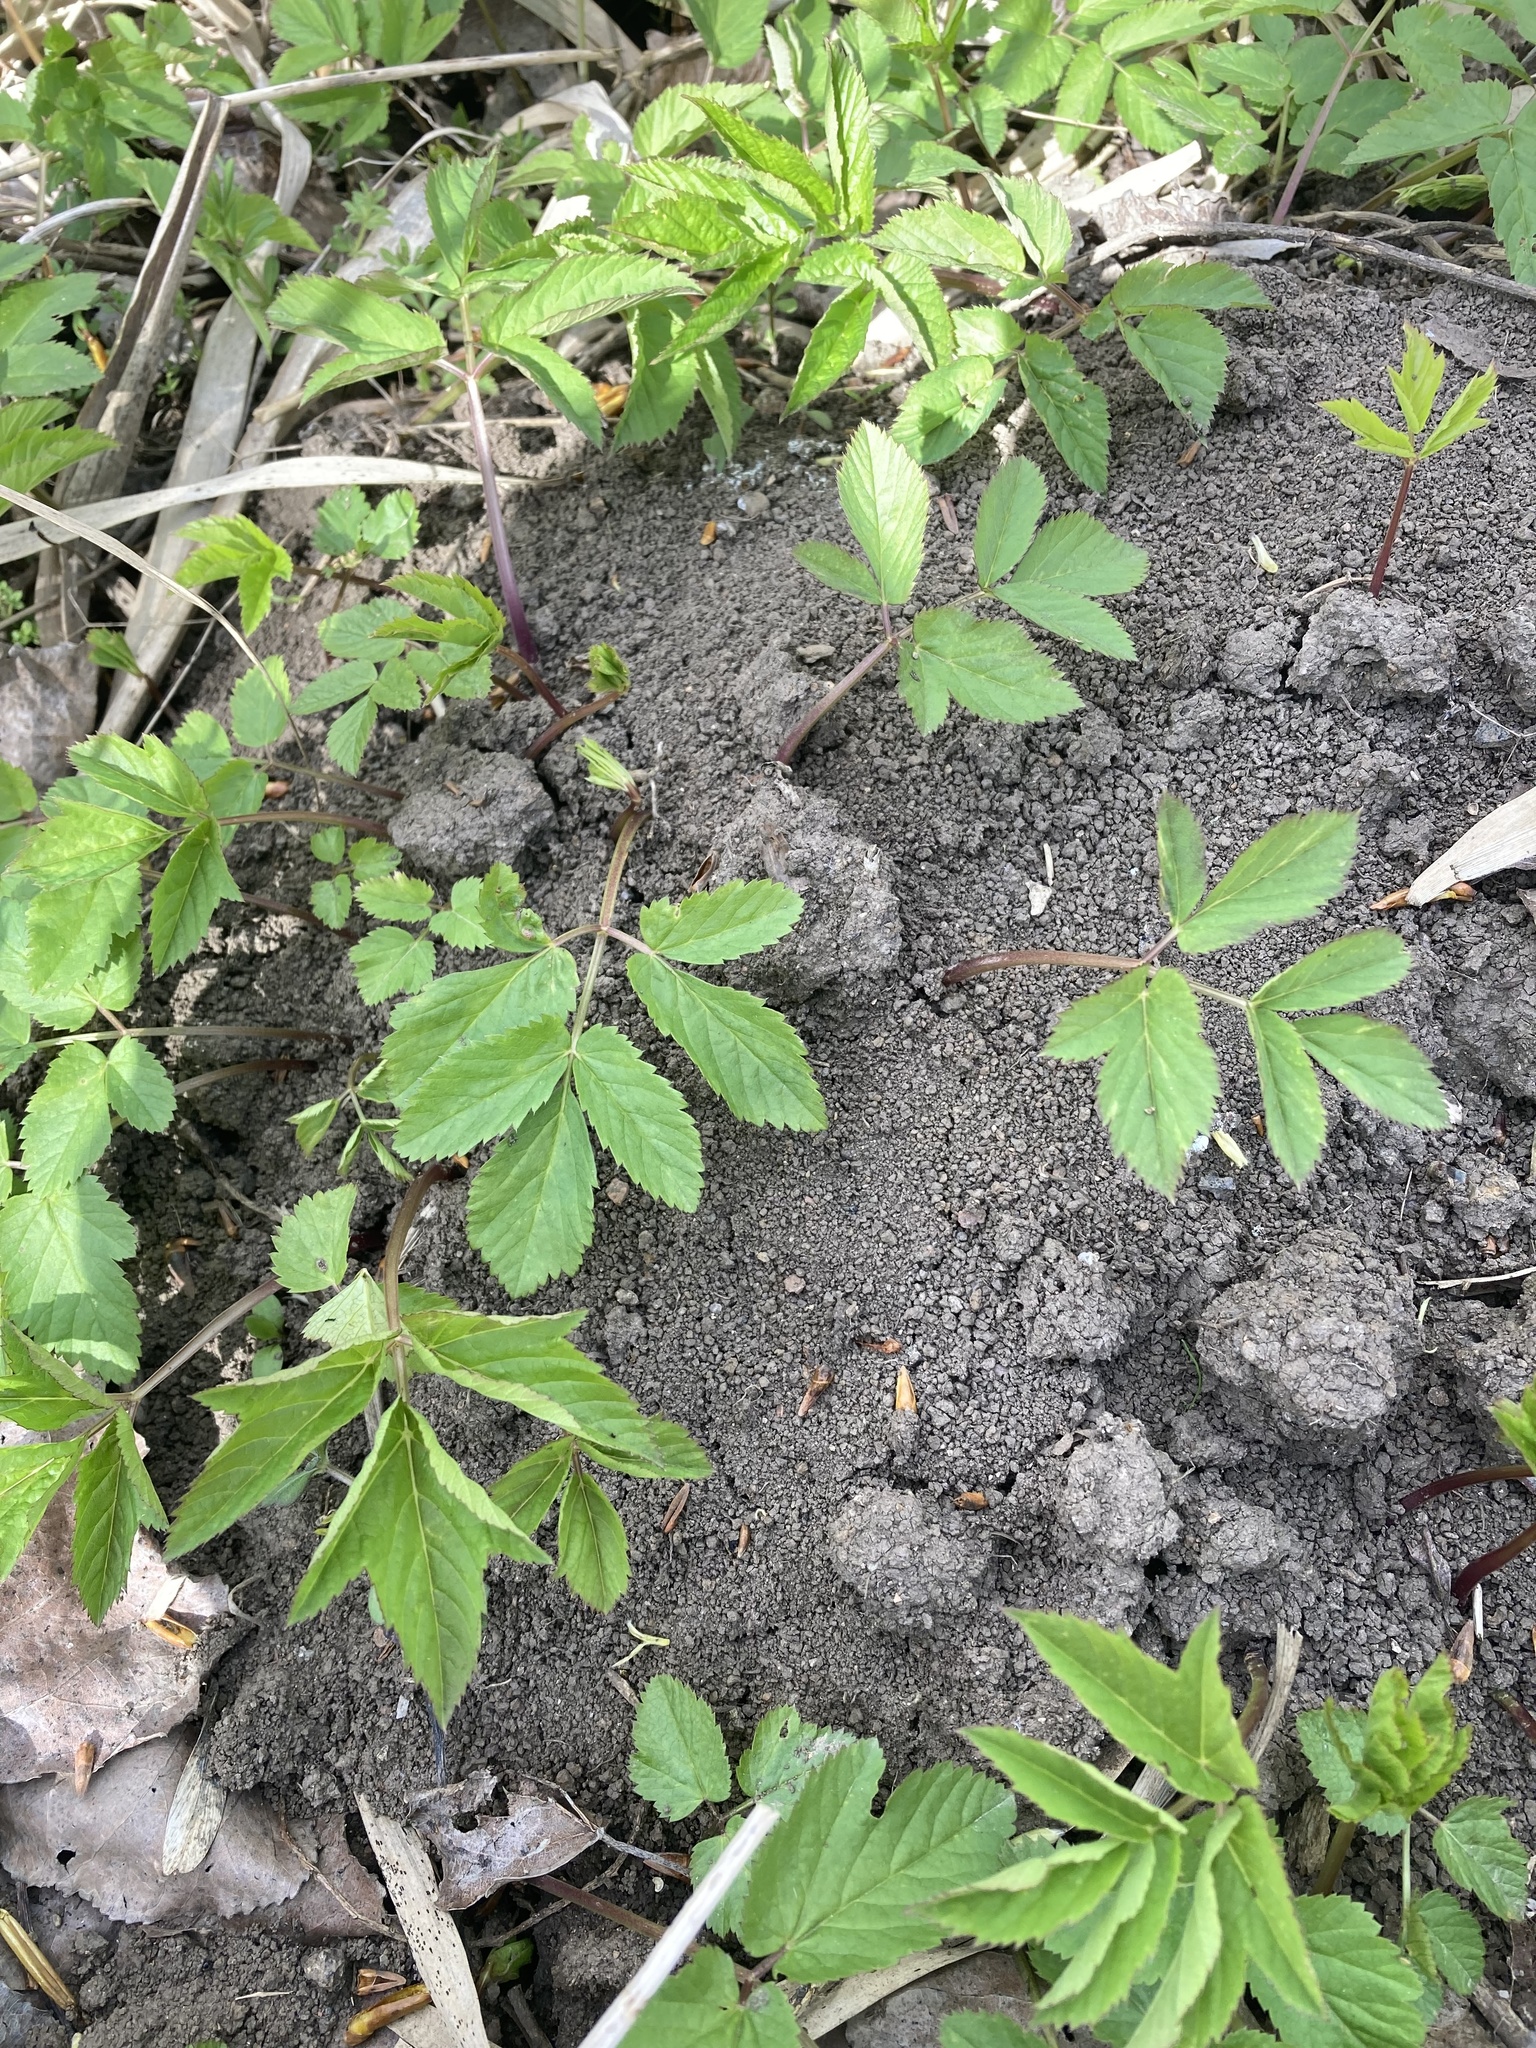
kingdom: Plantae
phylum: Tracheophyta
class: Magnoliopsida
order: Apiales
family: Apiaceae
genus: Aegopodium
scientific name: Aegopodium podagraria
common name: Ground-elder
